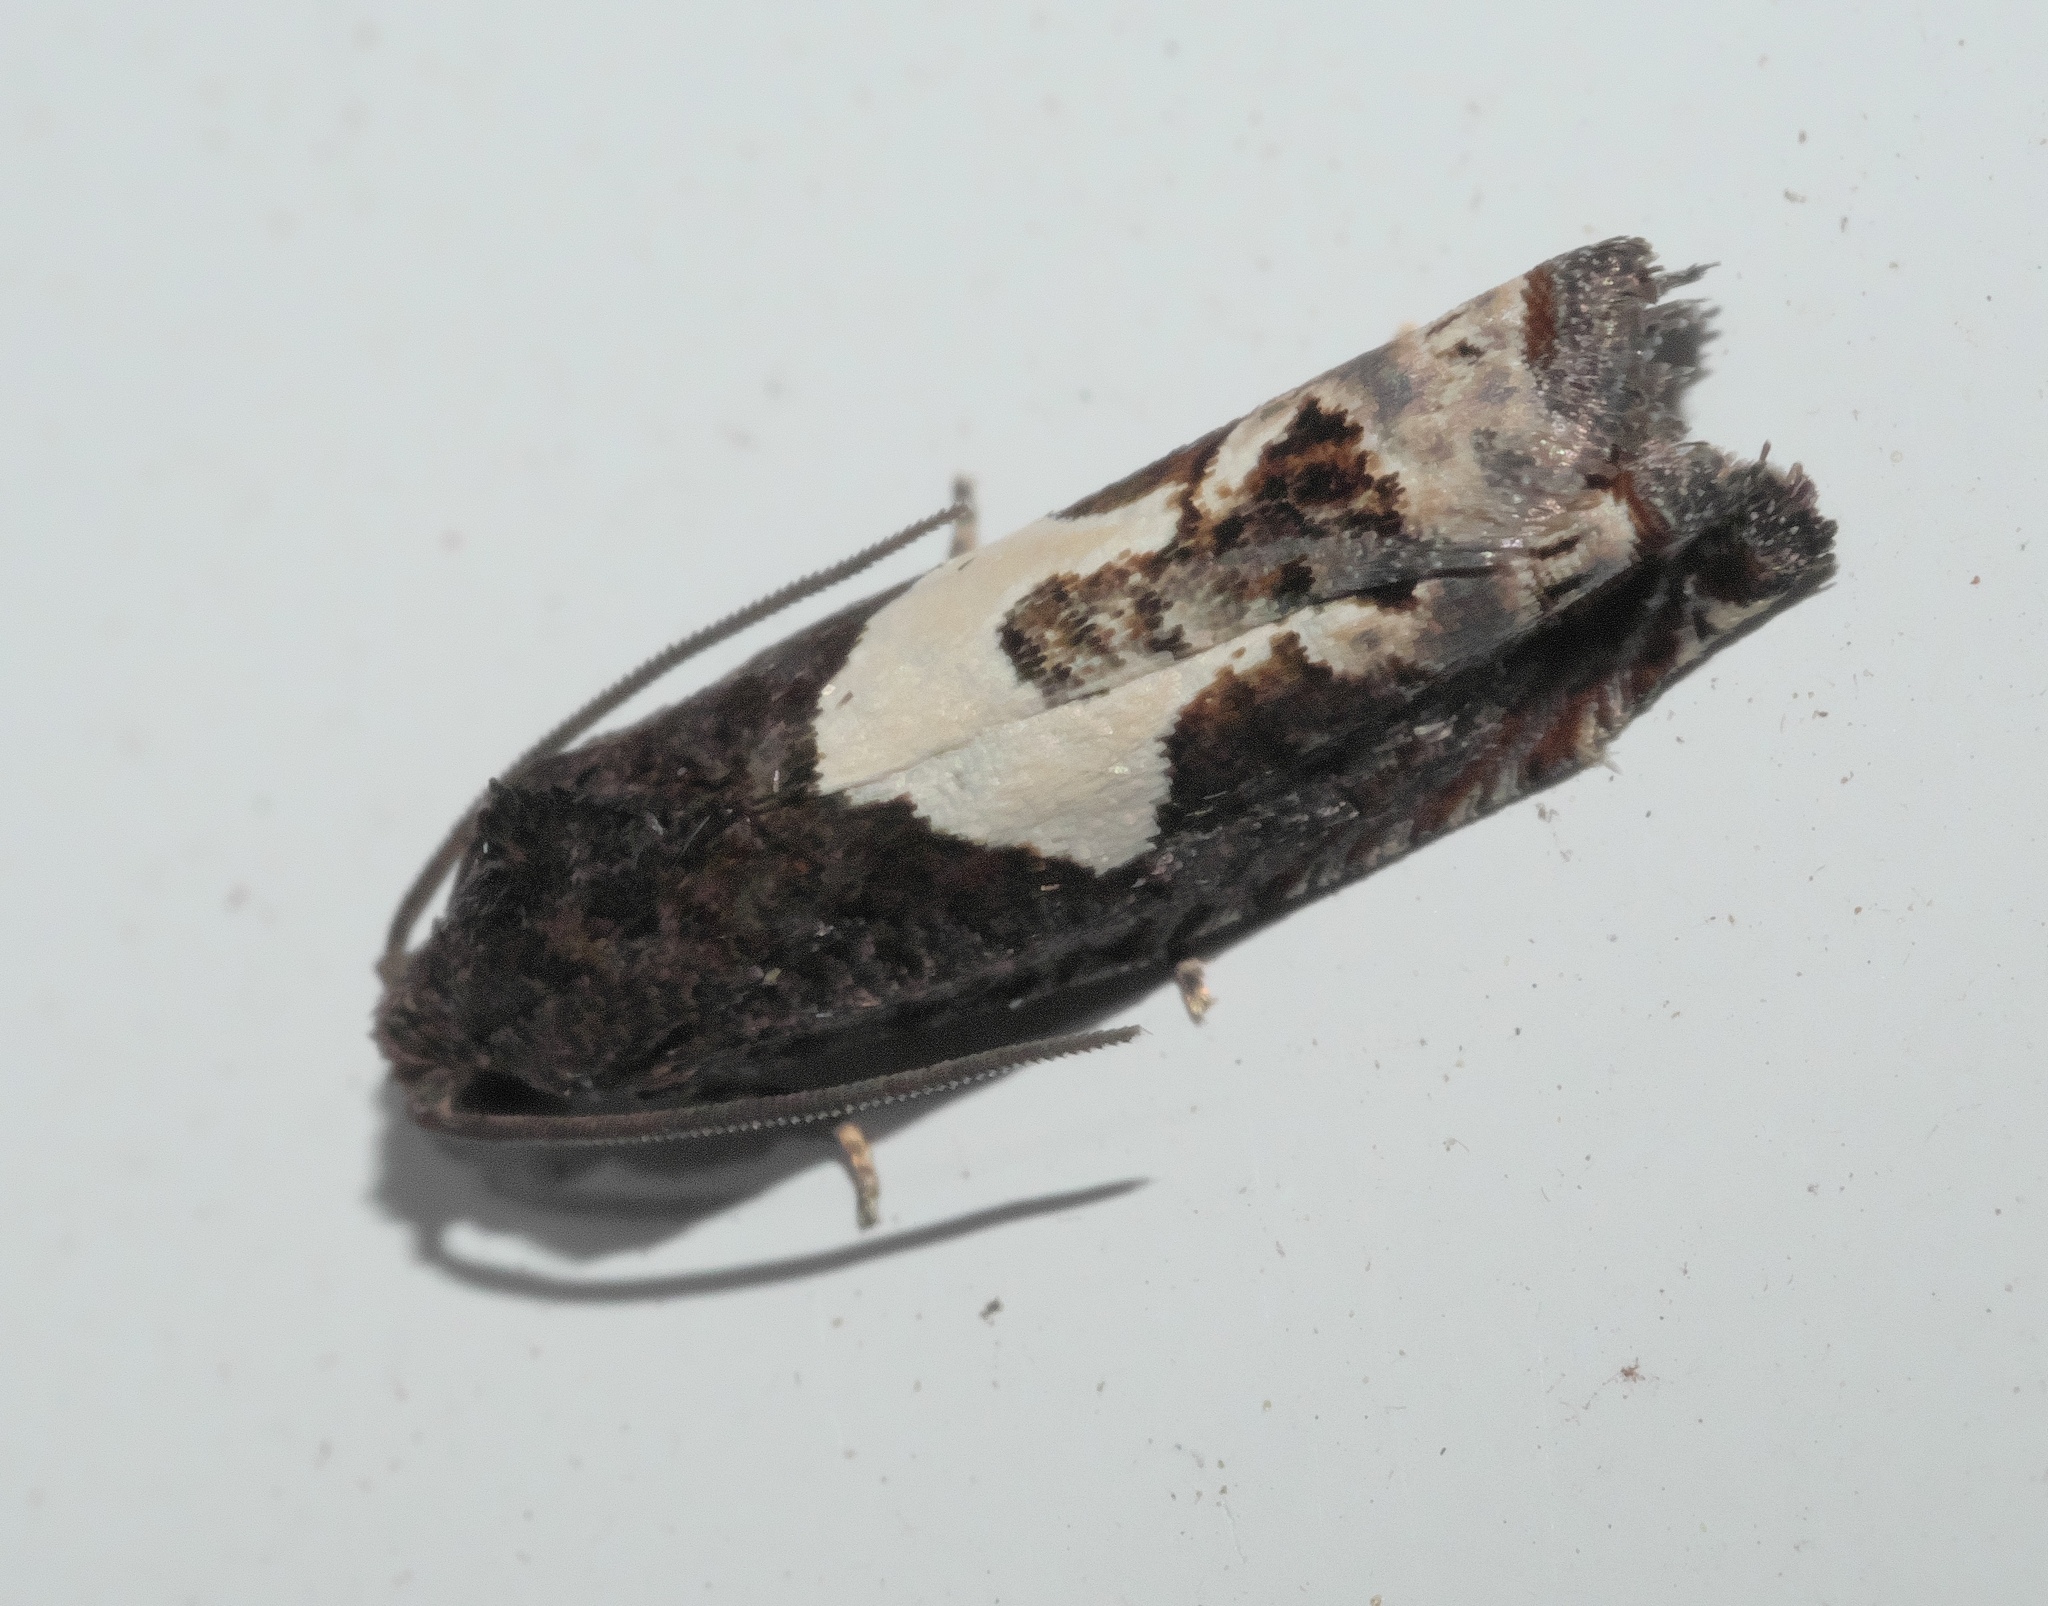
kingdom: Animalia
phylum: Arthropoda
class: Insecta
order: Lepidoptera
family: Tortricidae
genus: Epiblema
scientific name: Epiblema otiosana
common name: Bidens borer moth
